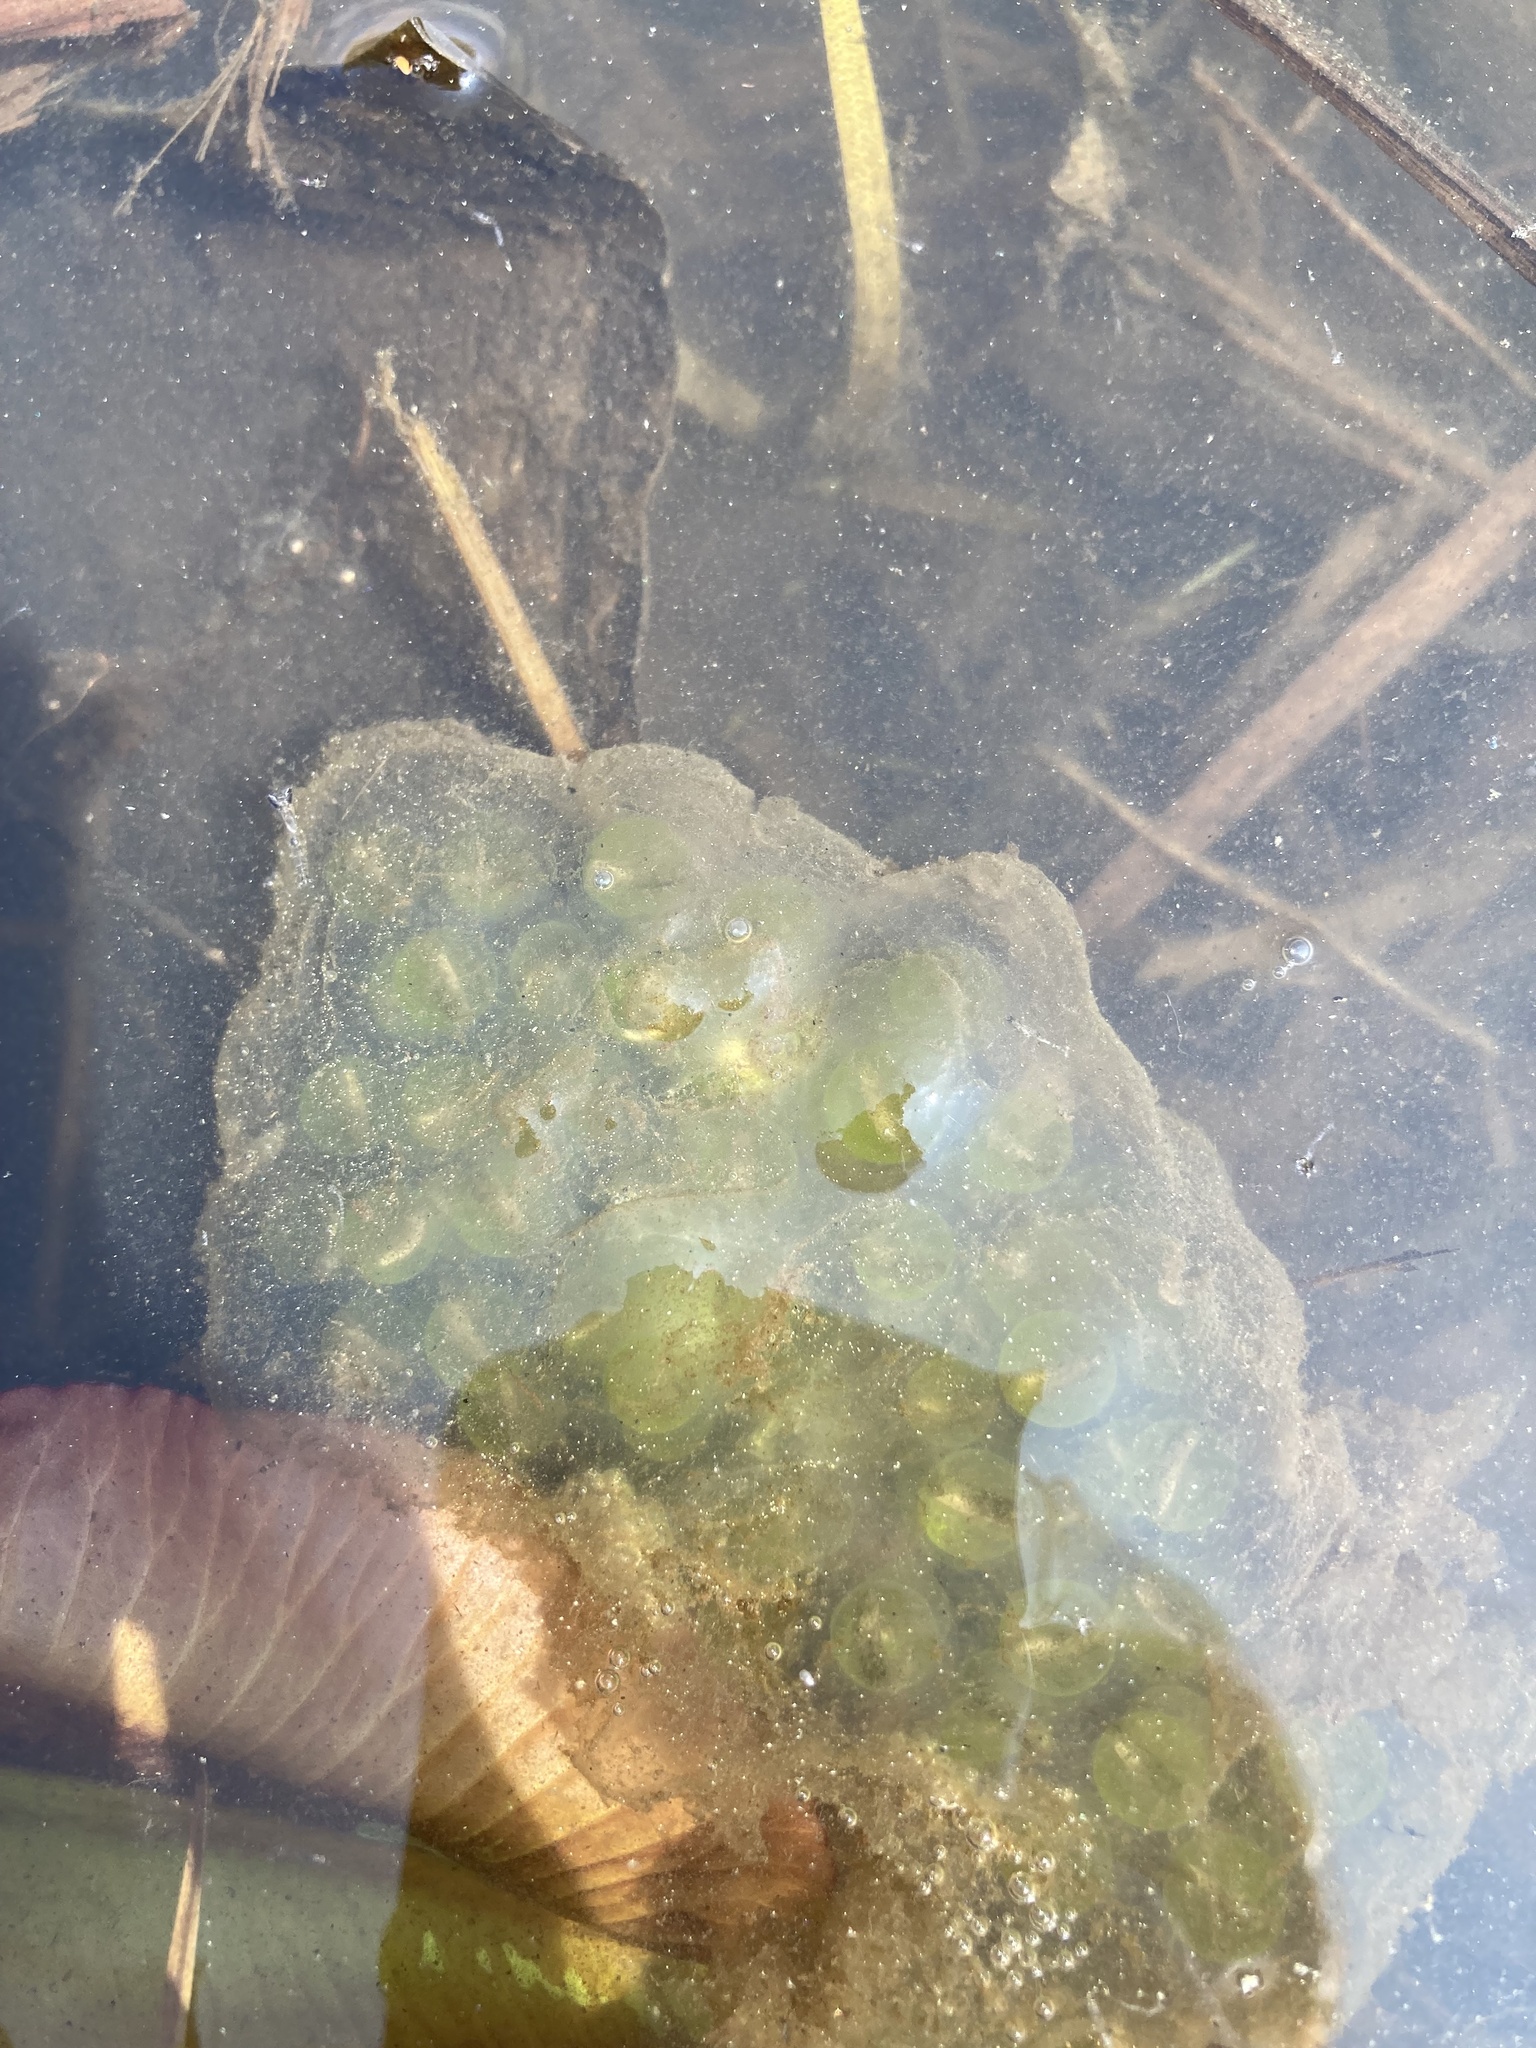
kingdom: Animalia
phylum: Chordata
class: Amphibia
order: Caudata
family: Ambystomatidae
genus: Ambystoma
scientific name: Ambystoma maculatum
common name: Spotted salamander
